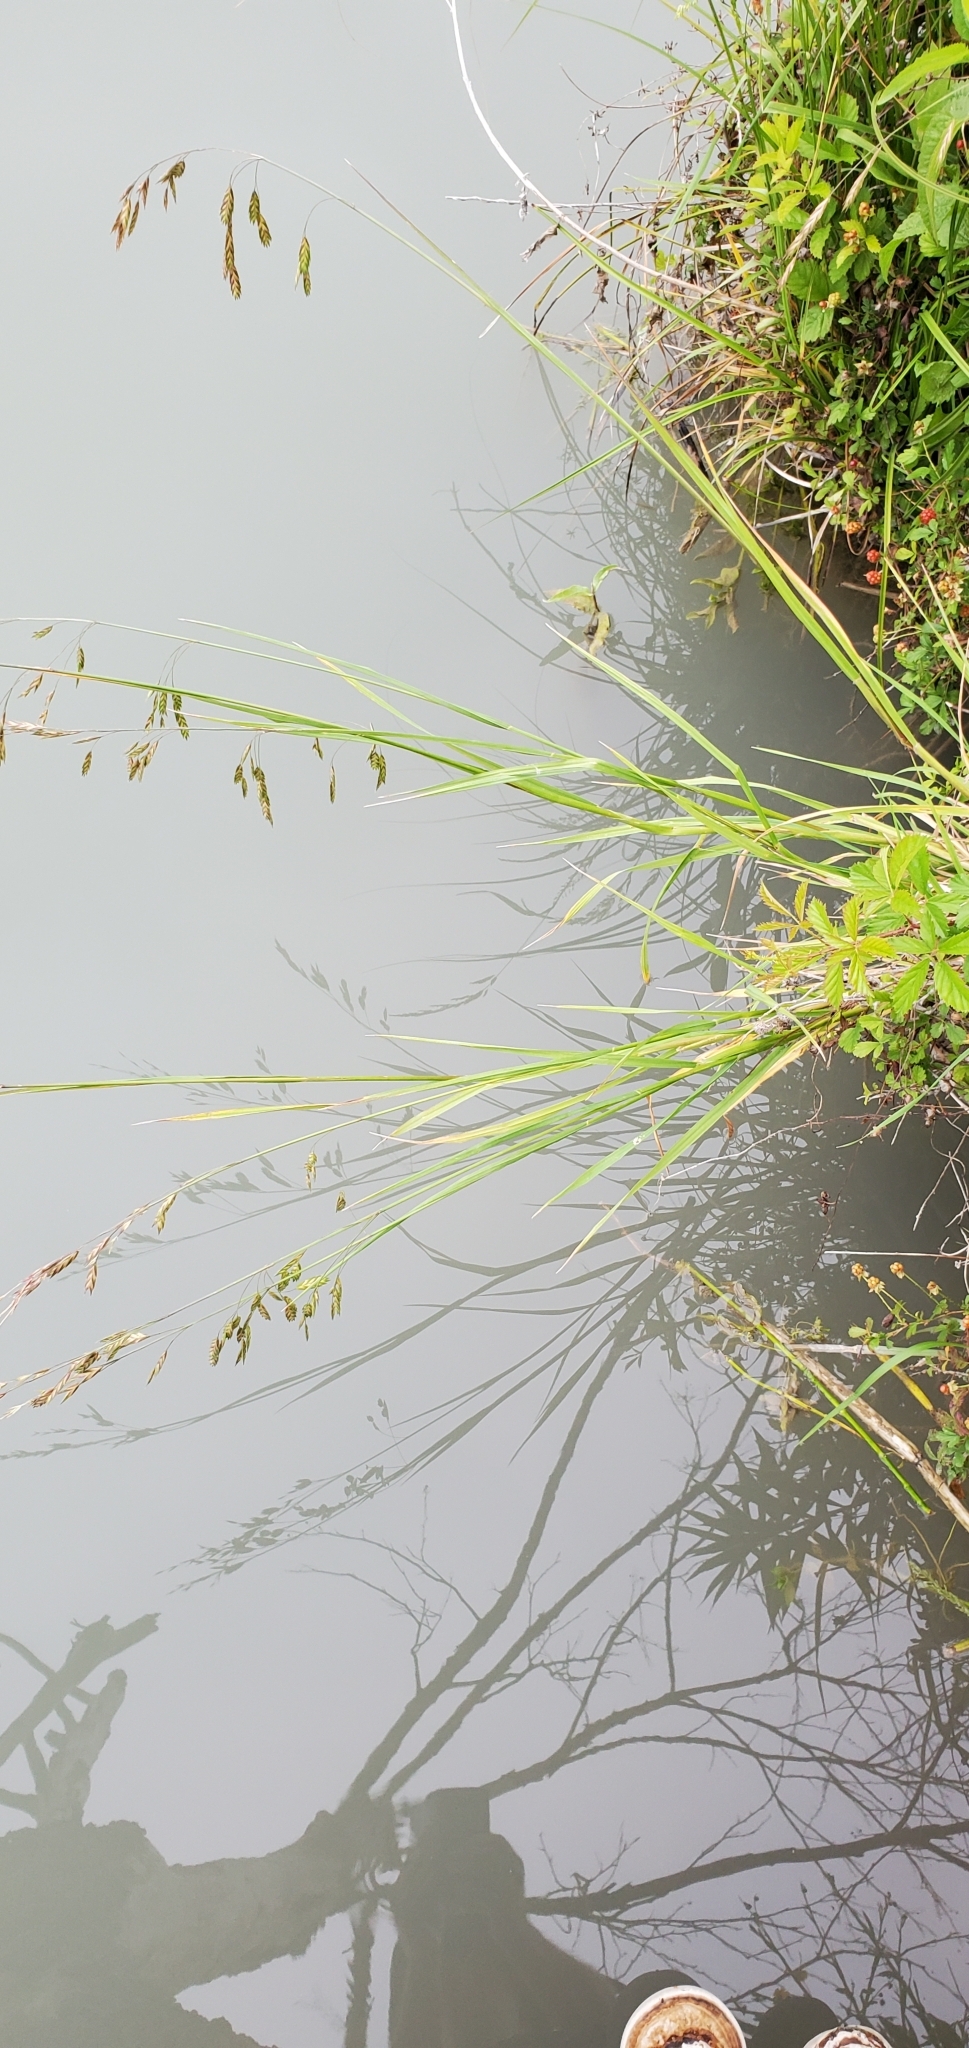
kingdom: Plantae
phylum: Tracheophyta
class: Liliopsida
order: Poales
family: Poaceae
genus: Bromus
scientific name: Bromus catharticus
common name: Rescuegrass
